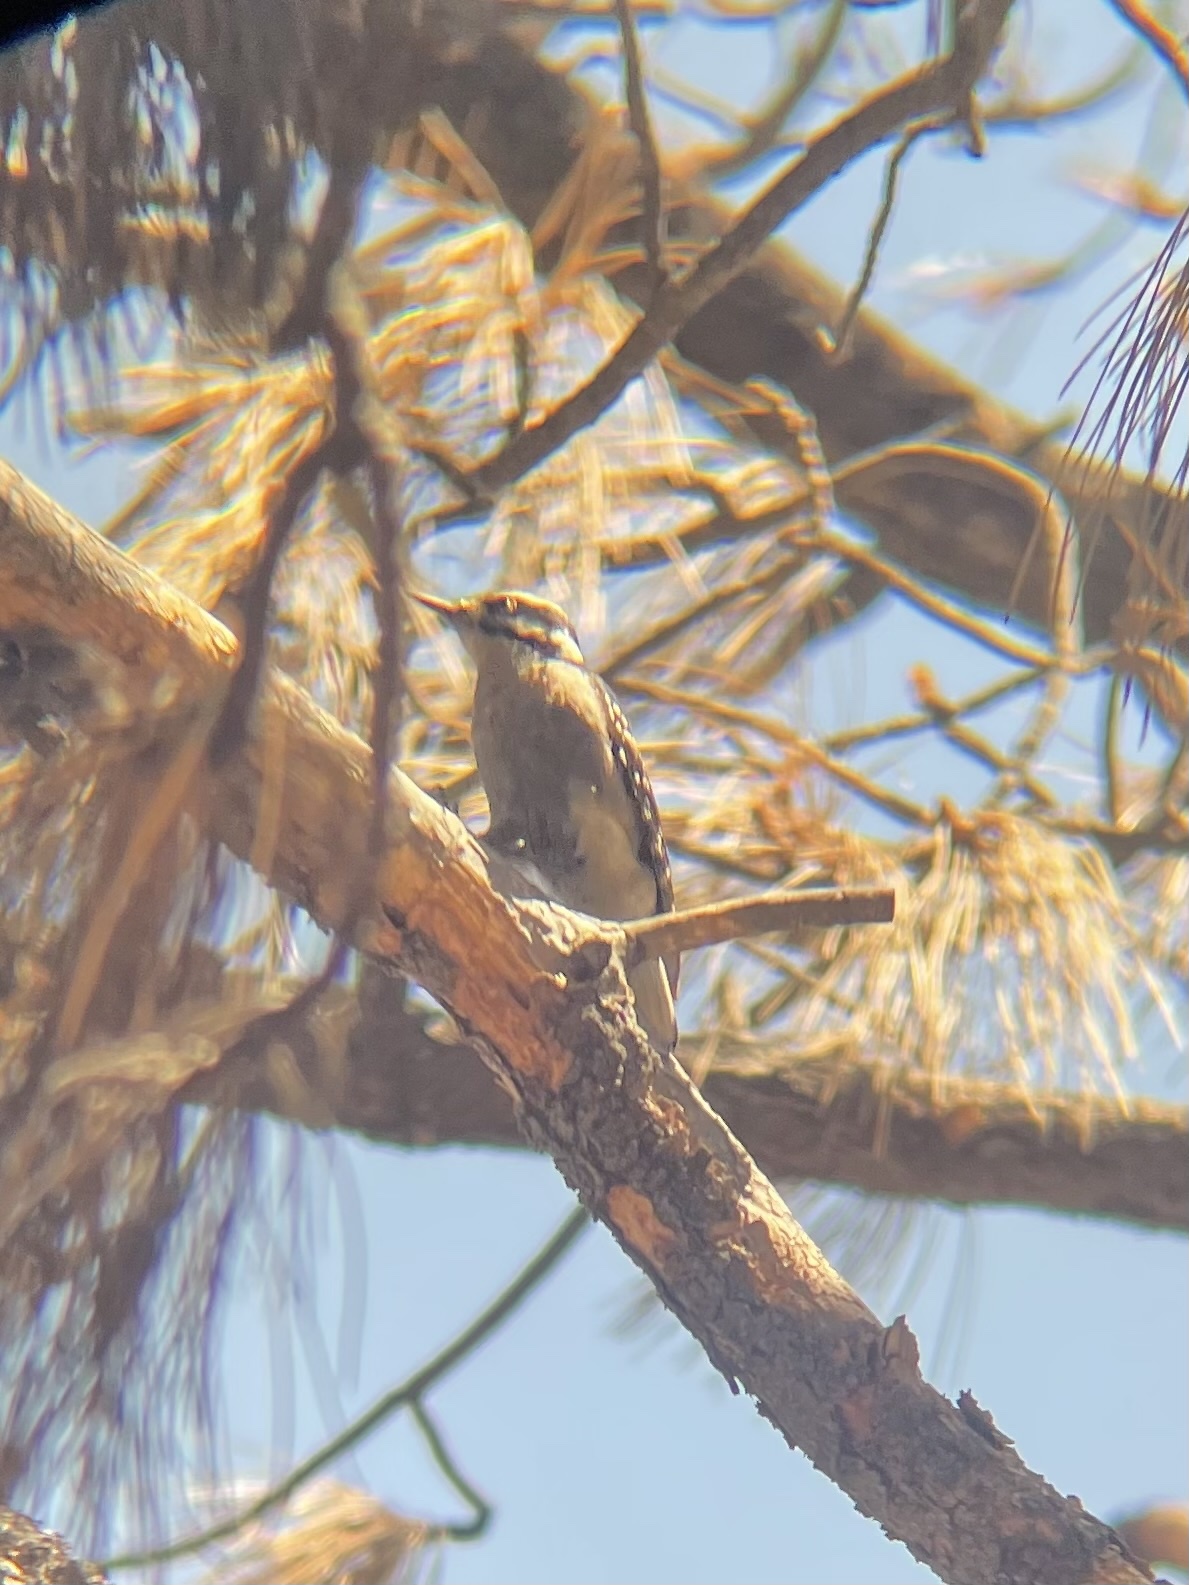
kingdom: Animalia
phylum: Chordata
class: Aves
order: Piciformes
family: Picidae
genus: Leuconotopicus
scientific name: Leuconotopicus villosus
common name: Hairy woodpecker
